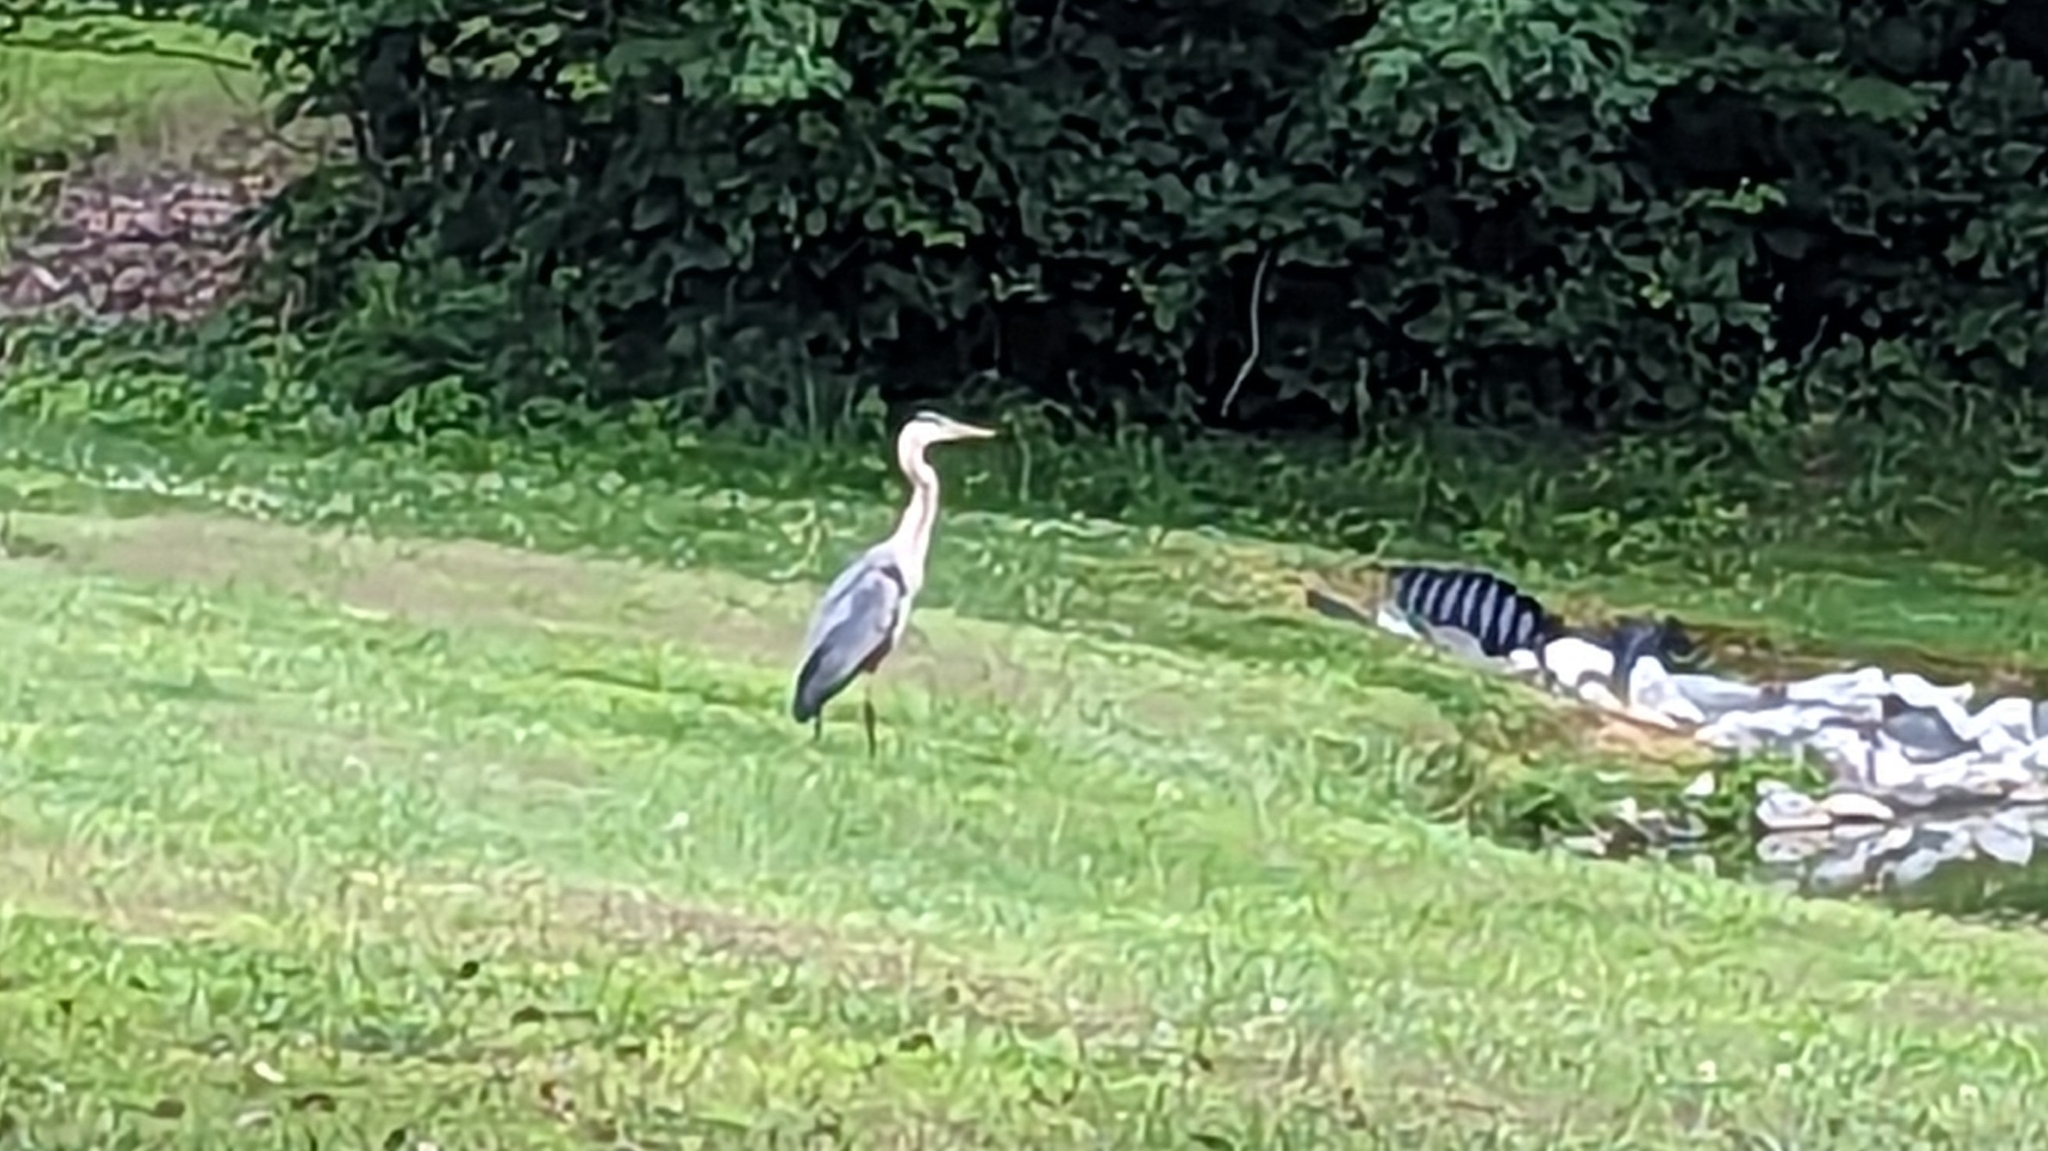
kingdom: Animalia
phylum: Chordata
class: Aves
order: Pelecaniformes
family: Ardeidae
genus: Ardea
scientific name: Ardea herodias
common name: Great blue heron
